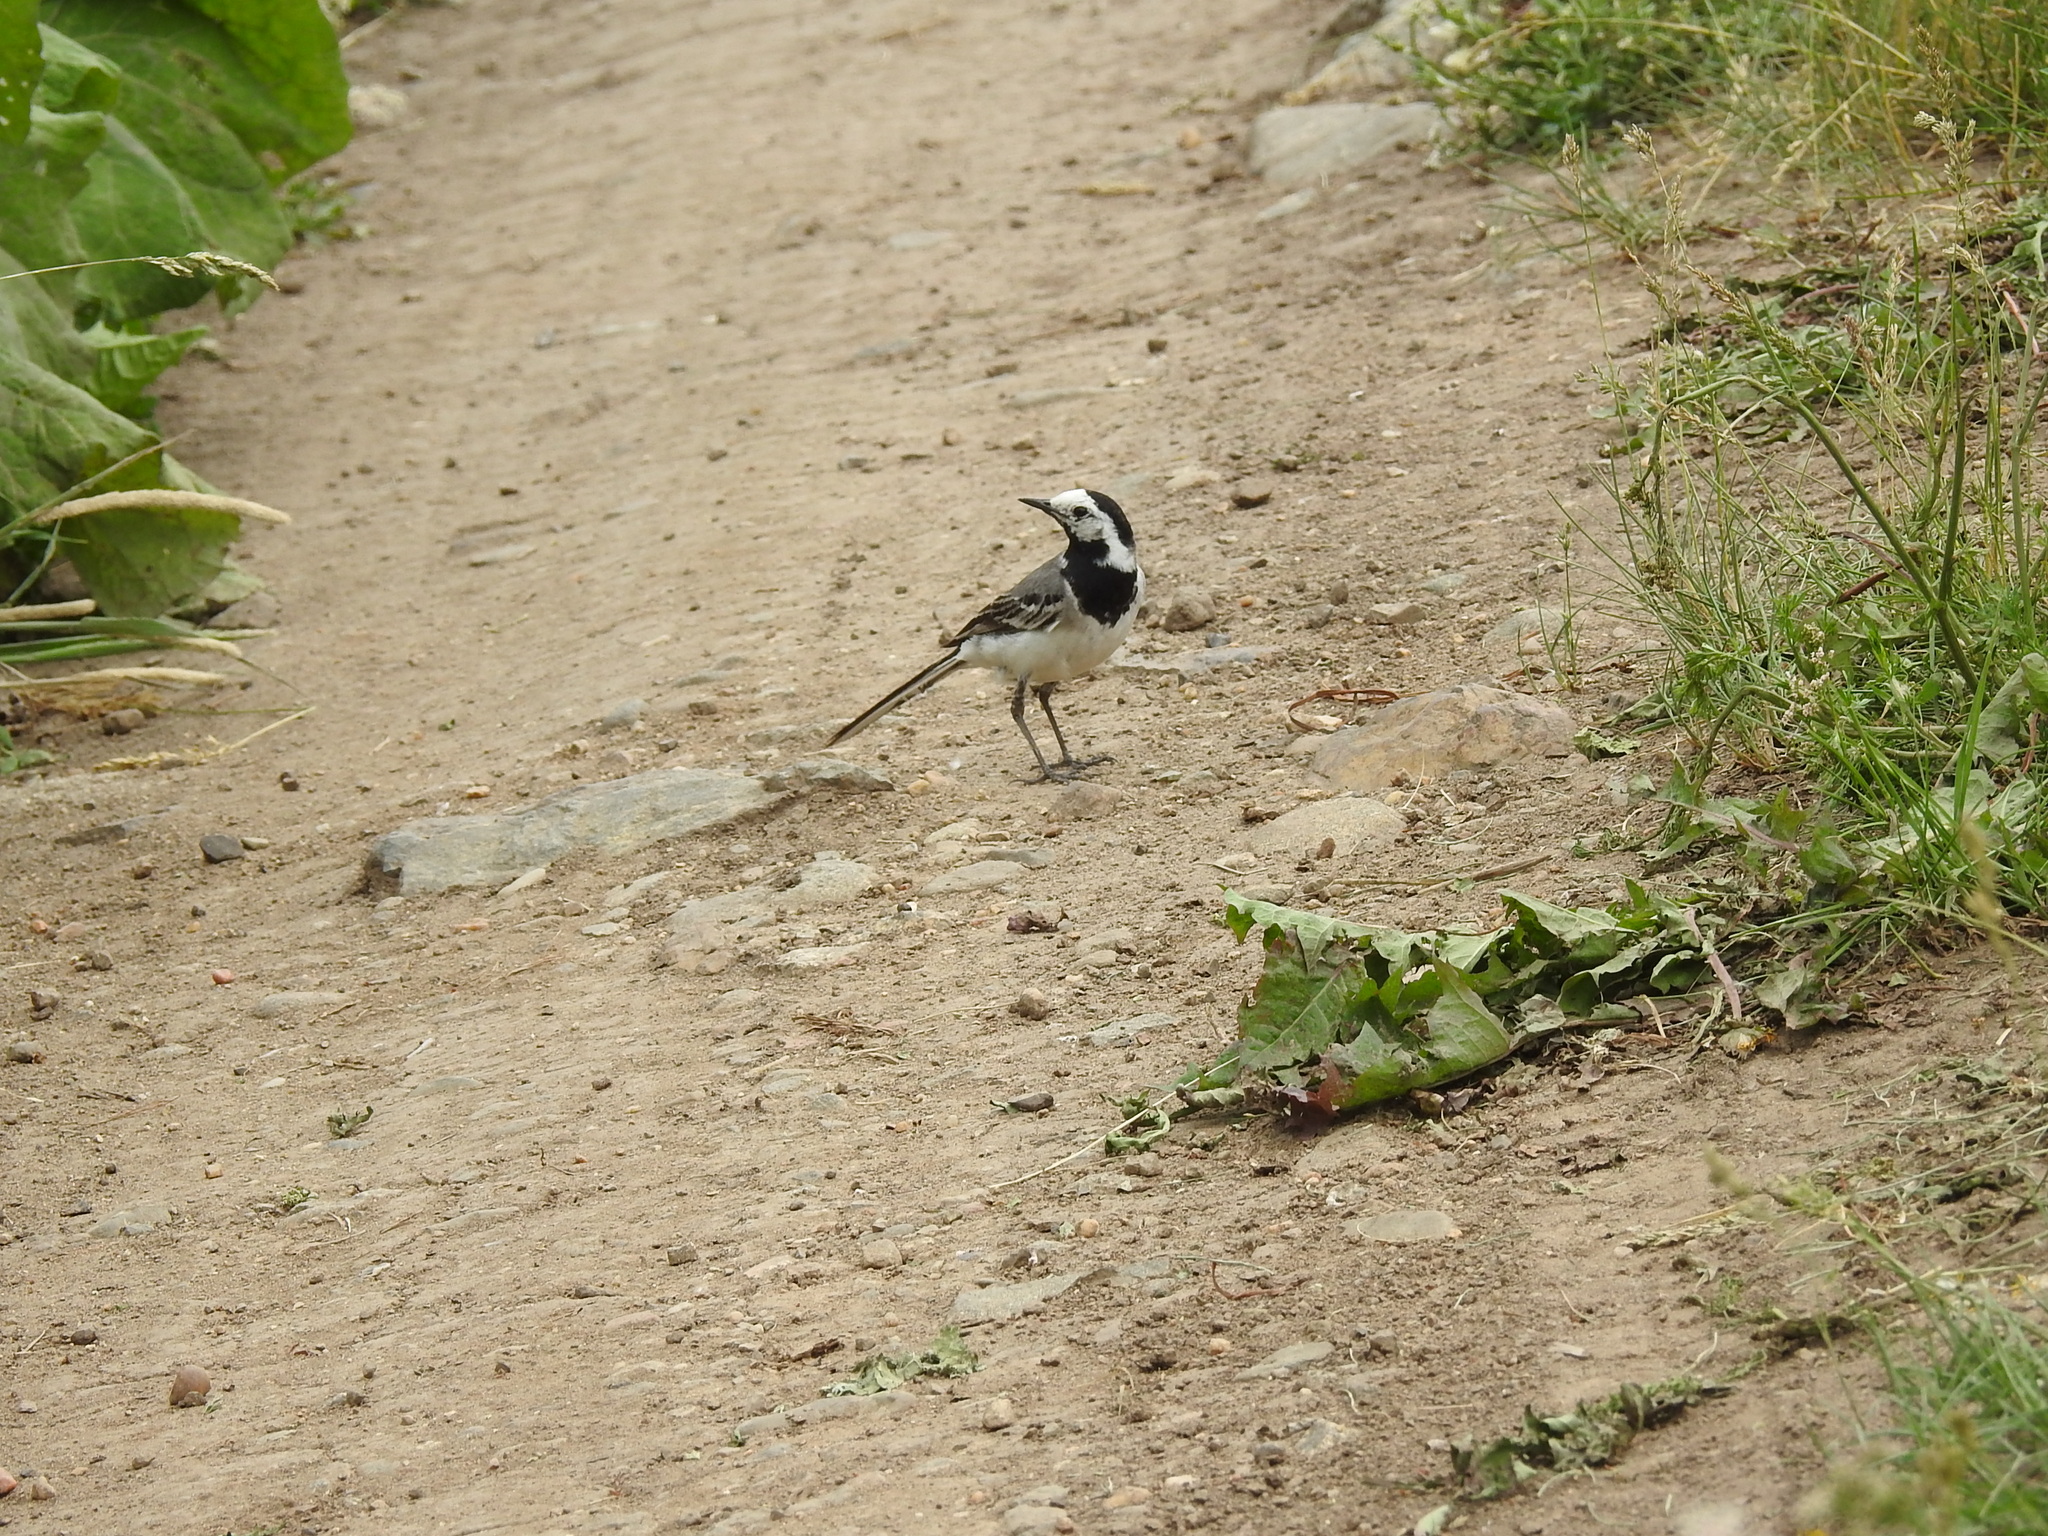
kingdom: Animalia
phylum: Chordata
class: Aves
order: Passeriformes
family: Motacillidae
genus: Motacilla
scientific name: Motacilla alba
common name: White wagtail
